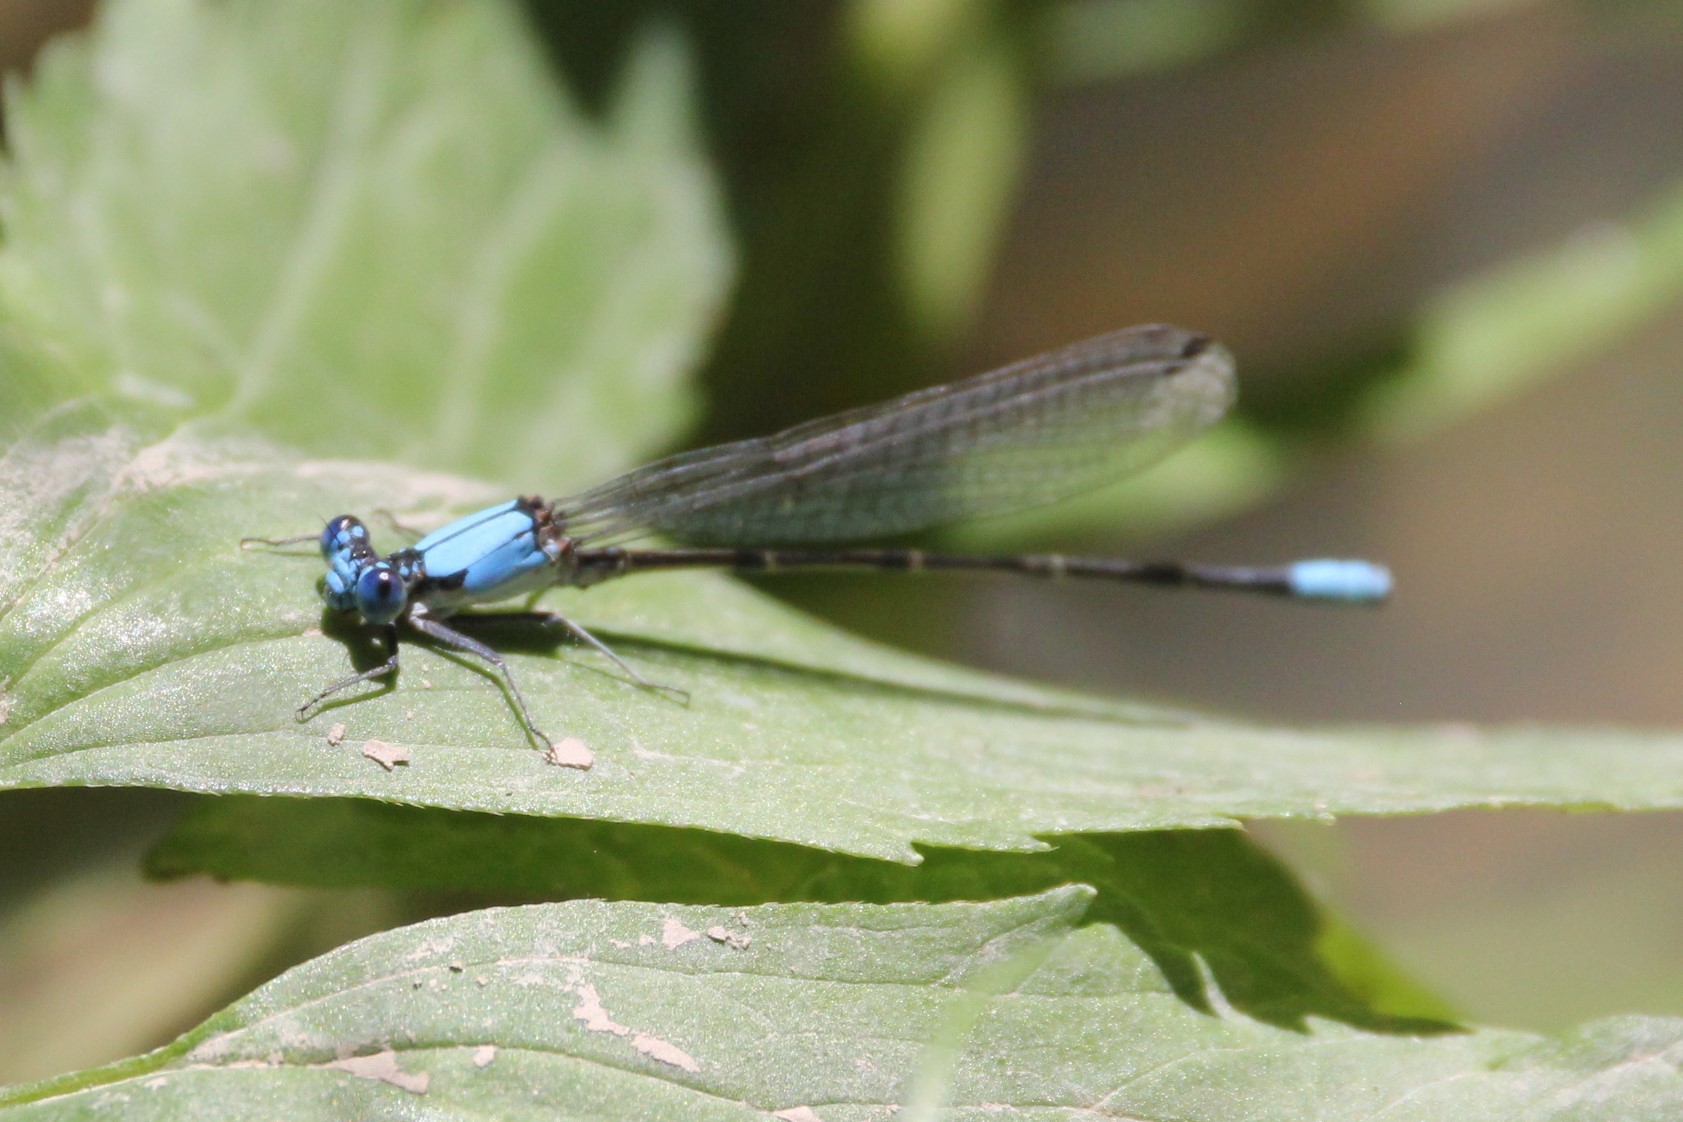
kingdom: Animalia
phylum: Arthropoda
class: Insecta
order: Odonata
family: Coenagrionidae
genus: Argia
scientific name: Argia apicalis
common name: Blue-fronted dancer
